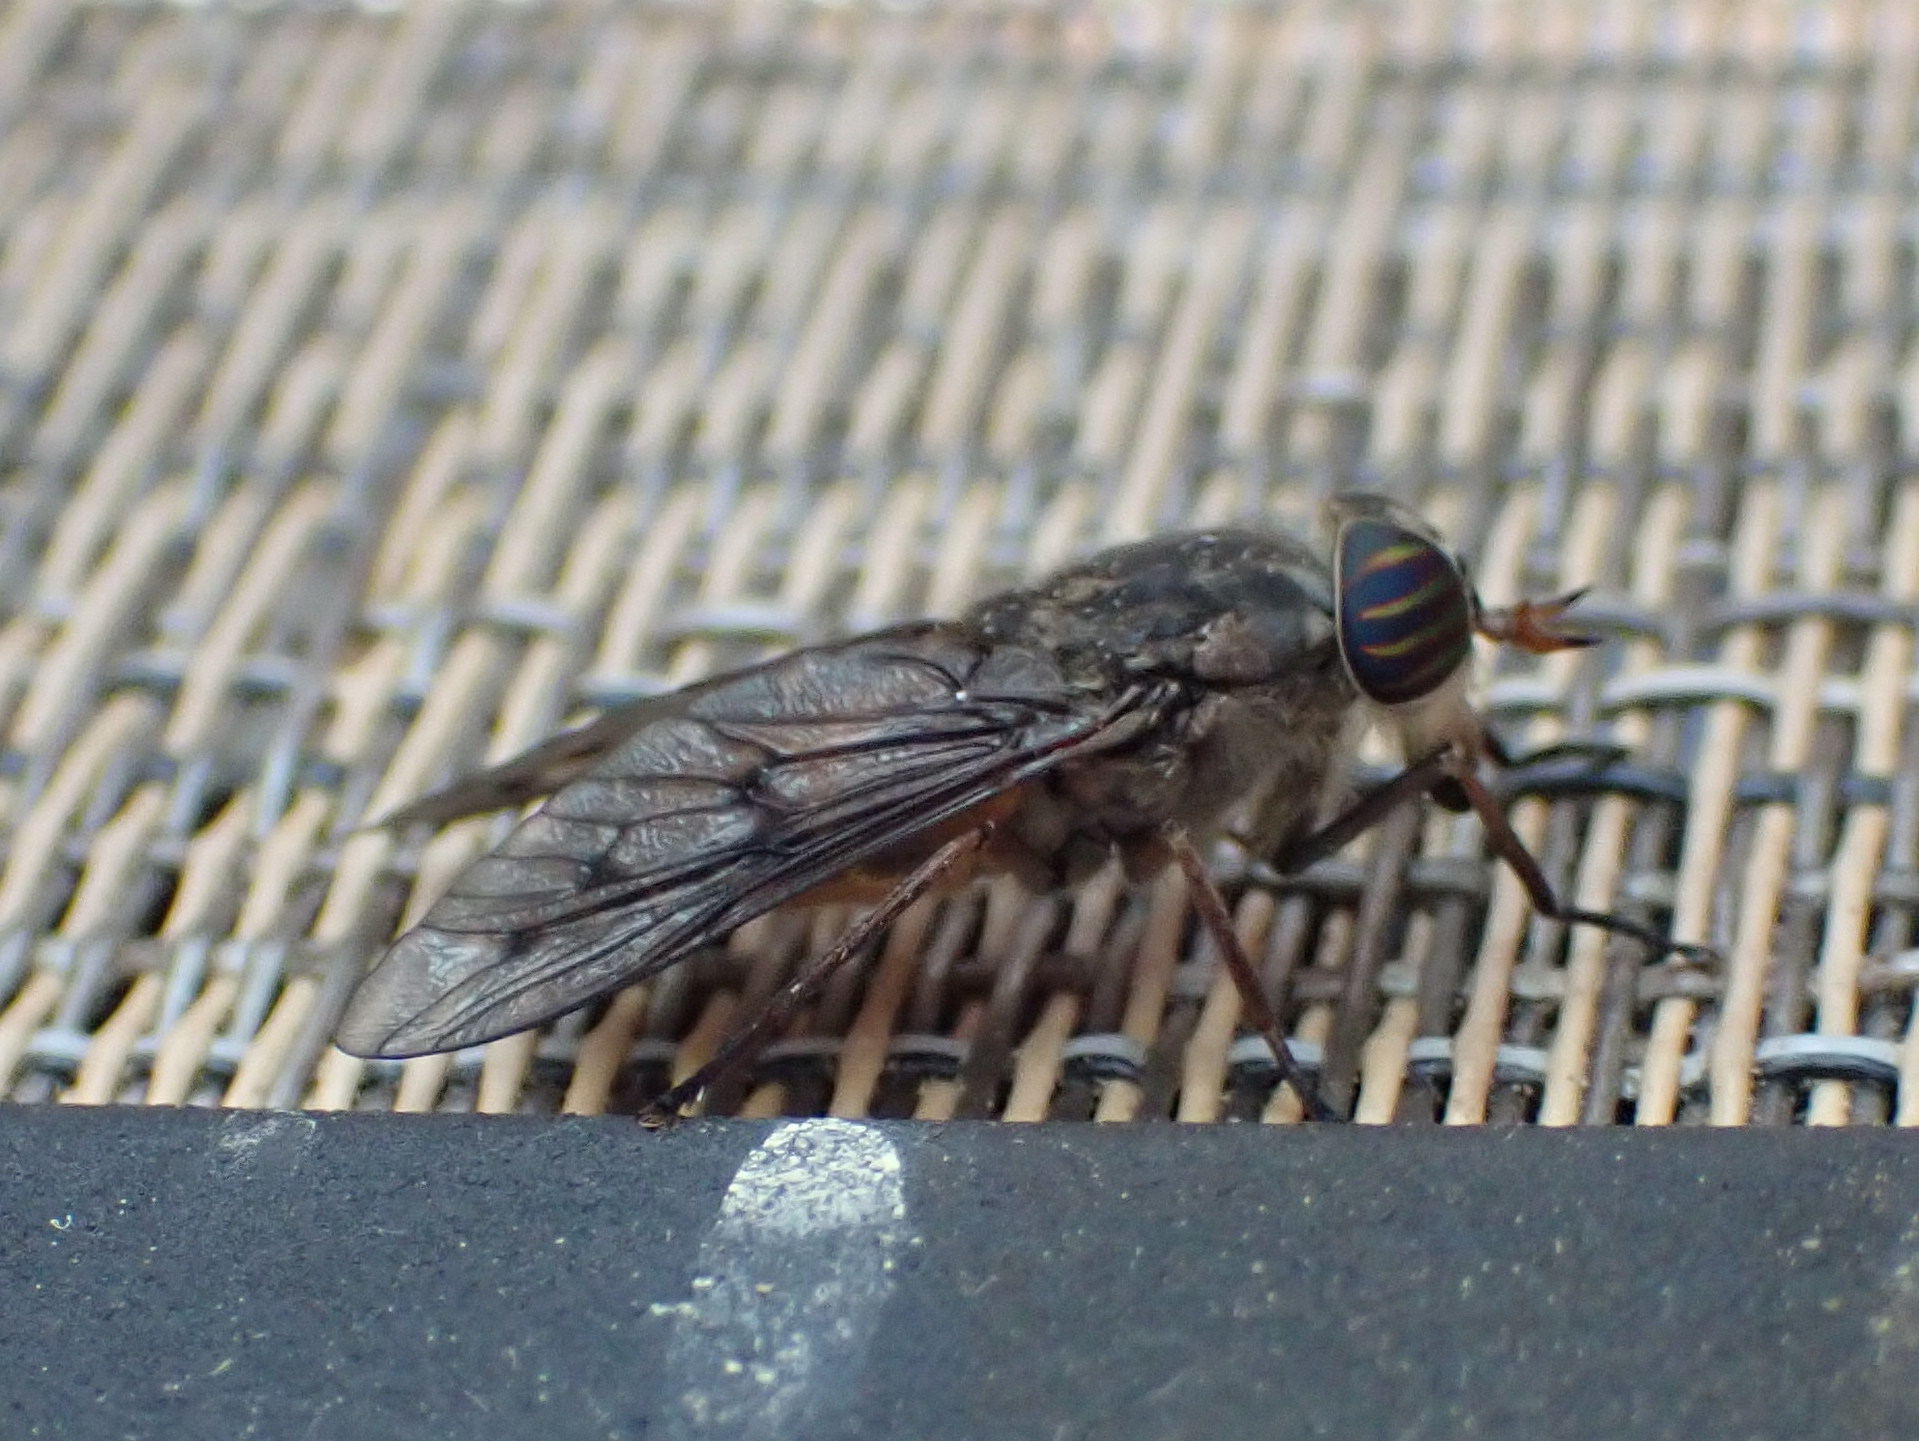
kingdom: Animalia
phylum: Arthropoda
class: Insecta
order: Diptera
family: Tabanidae
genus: Hybomitra
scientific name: Hybomitra lasiophthalma
